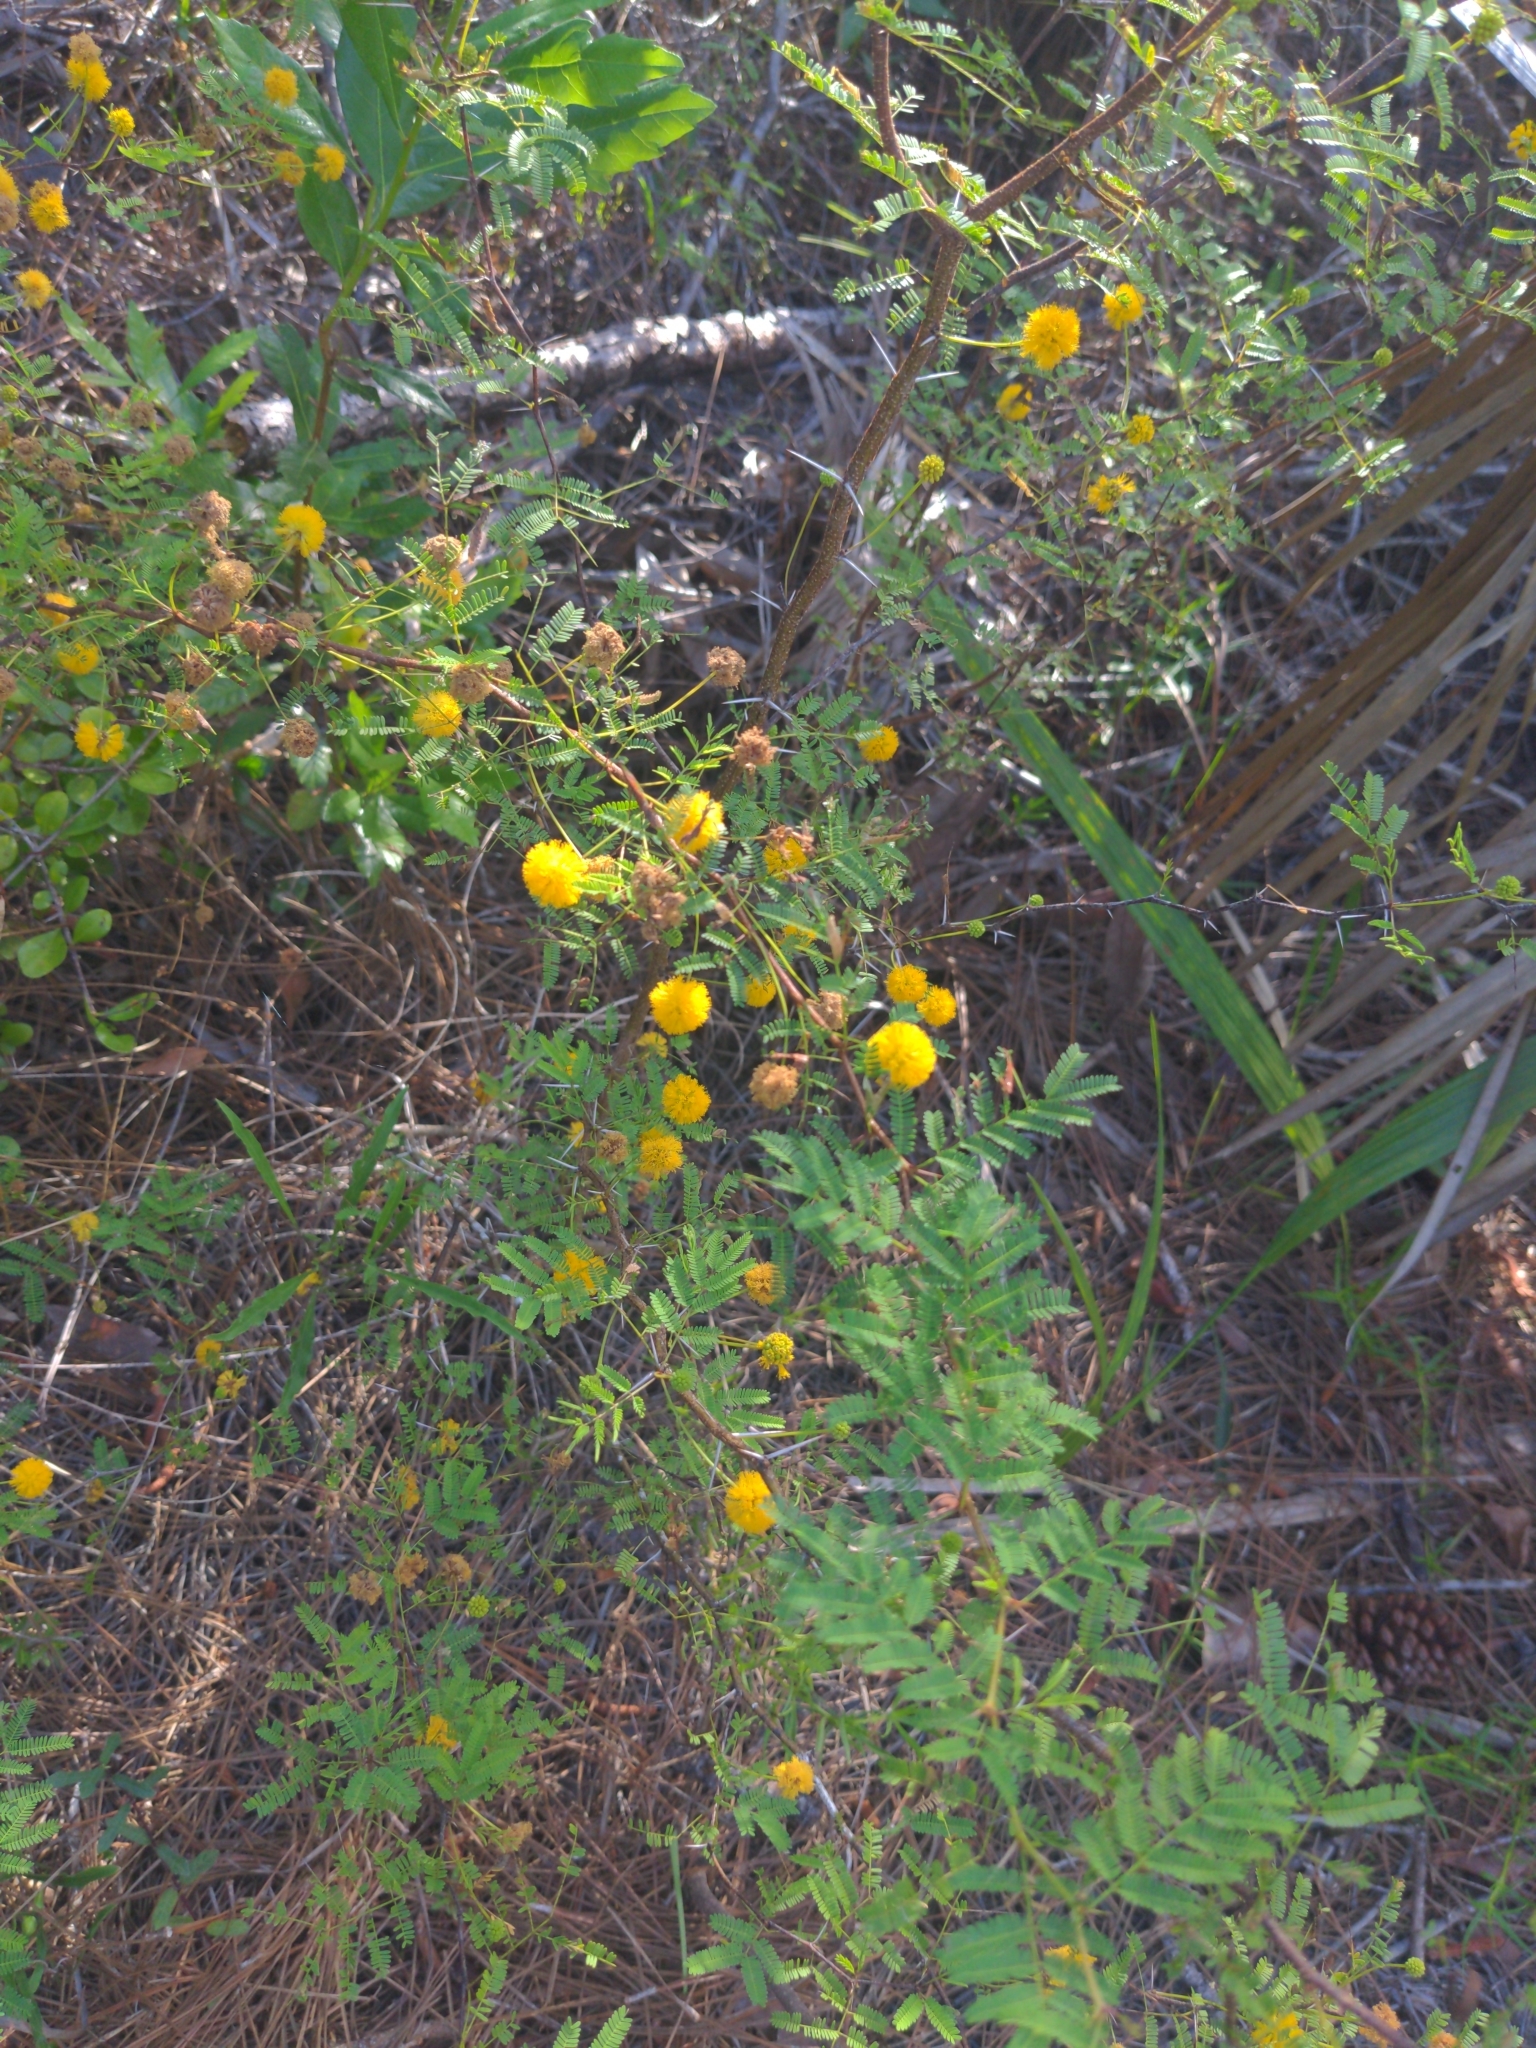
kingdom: Plantae
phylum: Tracheophyta
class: Magnoliopsida
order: Fabales
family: Fabaceae
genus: Vachellia
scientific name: Vachellia farnesiana
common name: Sweet acacia
